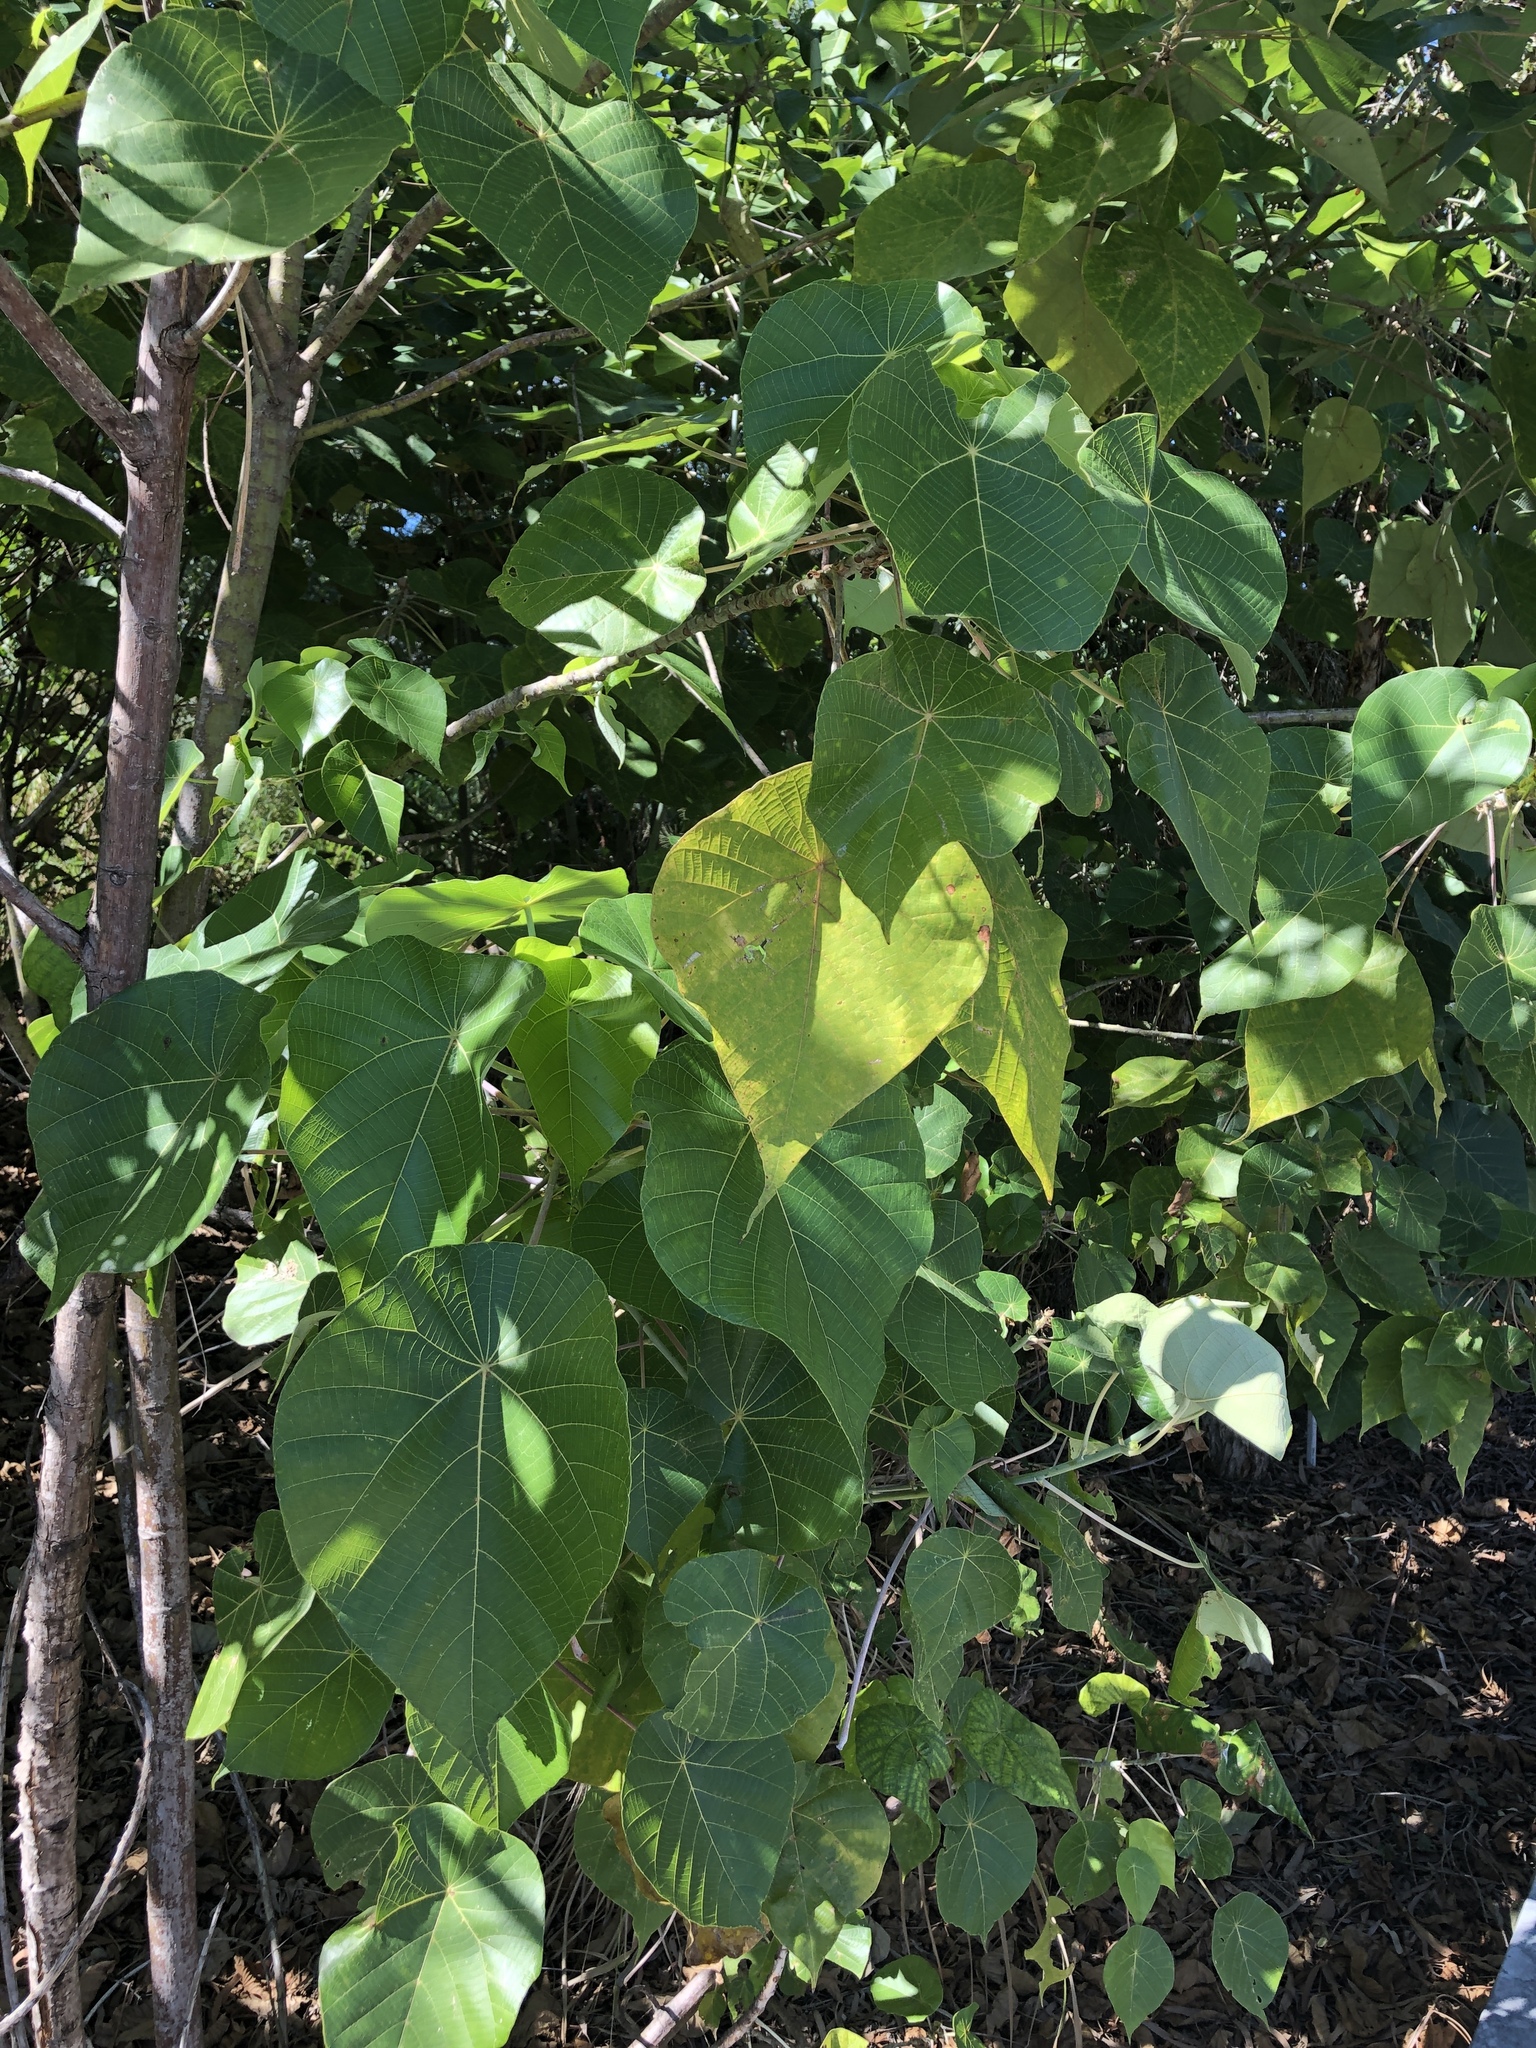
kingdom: Plantae
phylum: Tracheophyta
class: Magnoliopsida
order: Malpighiales
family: Euphorbiaceae
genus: Macaranga
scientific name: Macaranga tanarius
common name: Parasol leaf tree
